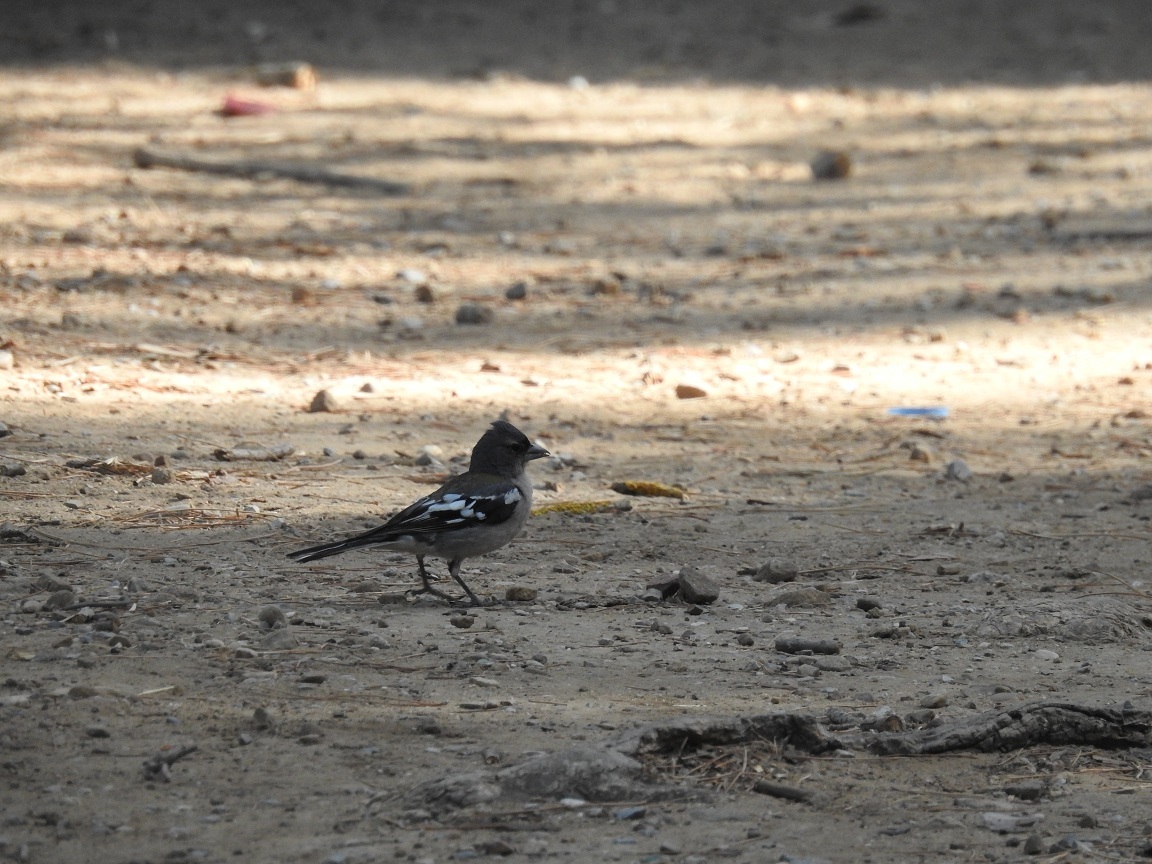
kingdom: Animalia
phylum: Chordata
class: Aves
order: Passeriformes
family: Fringillidae
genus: Fringilla
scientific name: Fringilla spodiogenys
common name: African chaffinch
